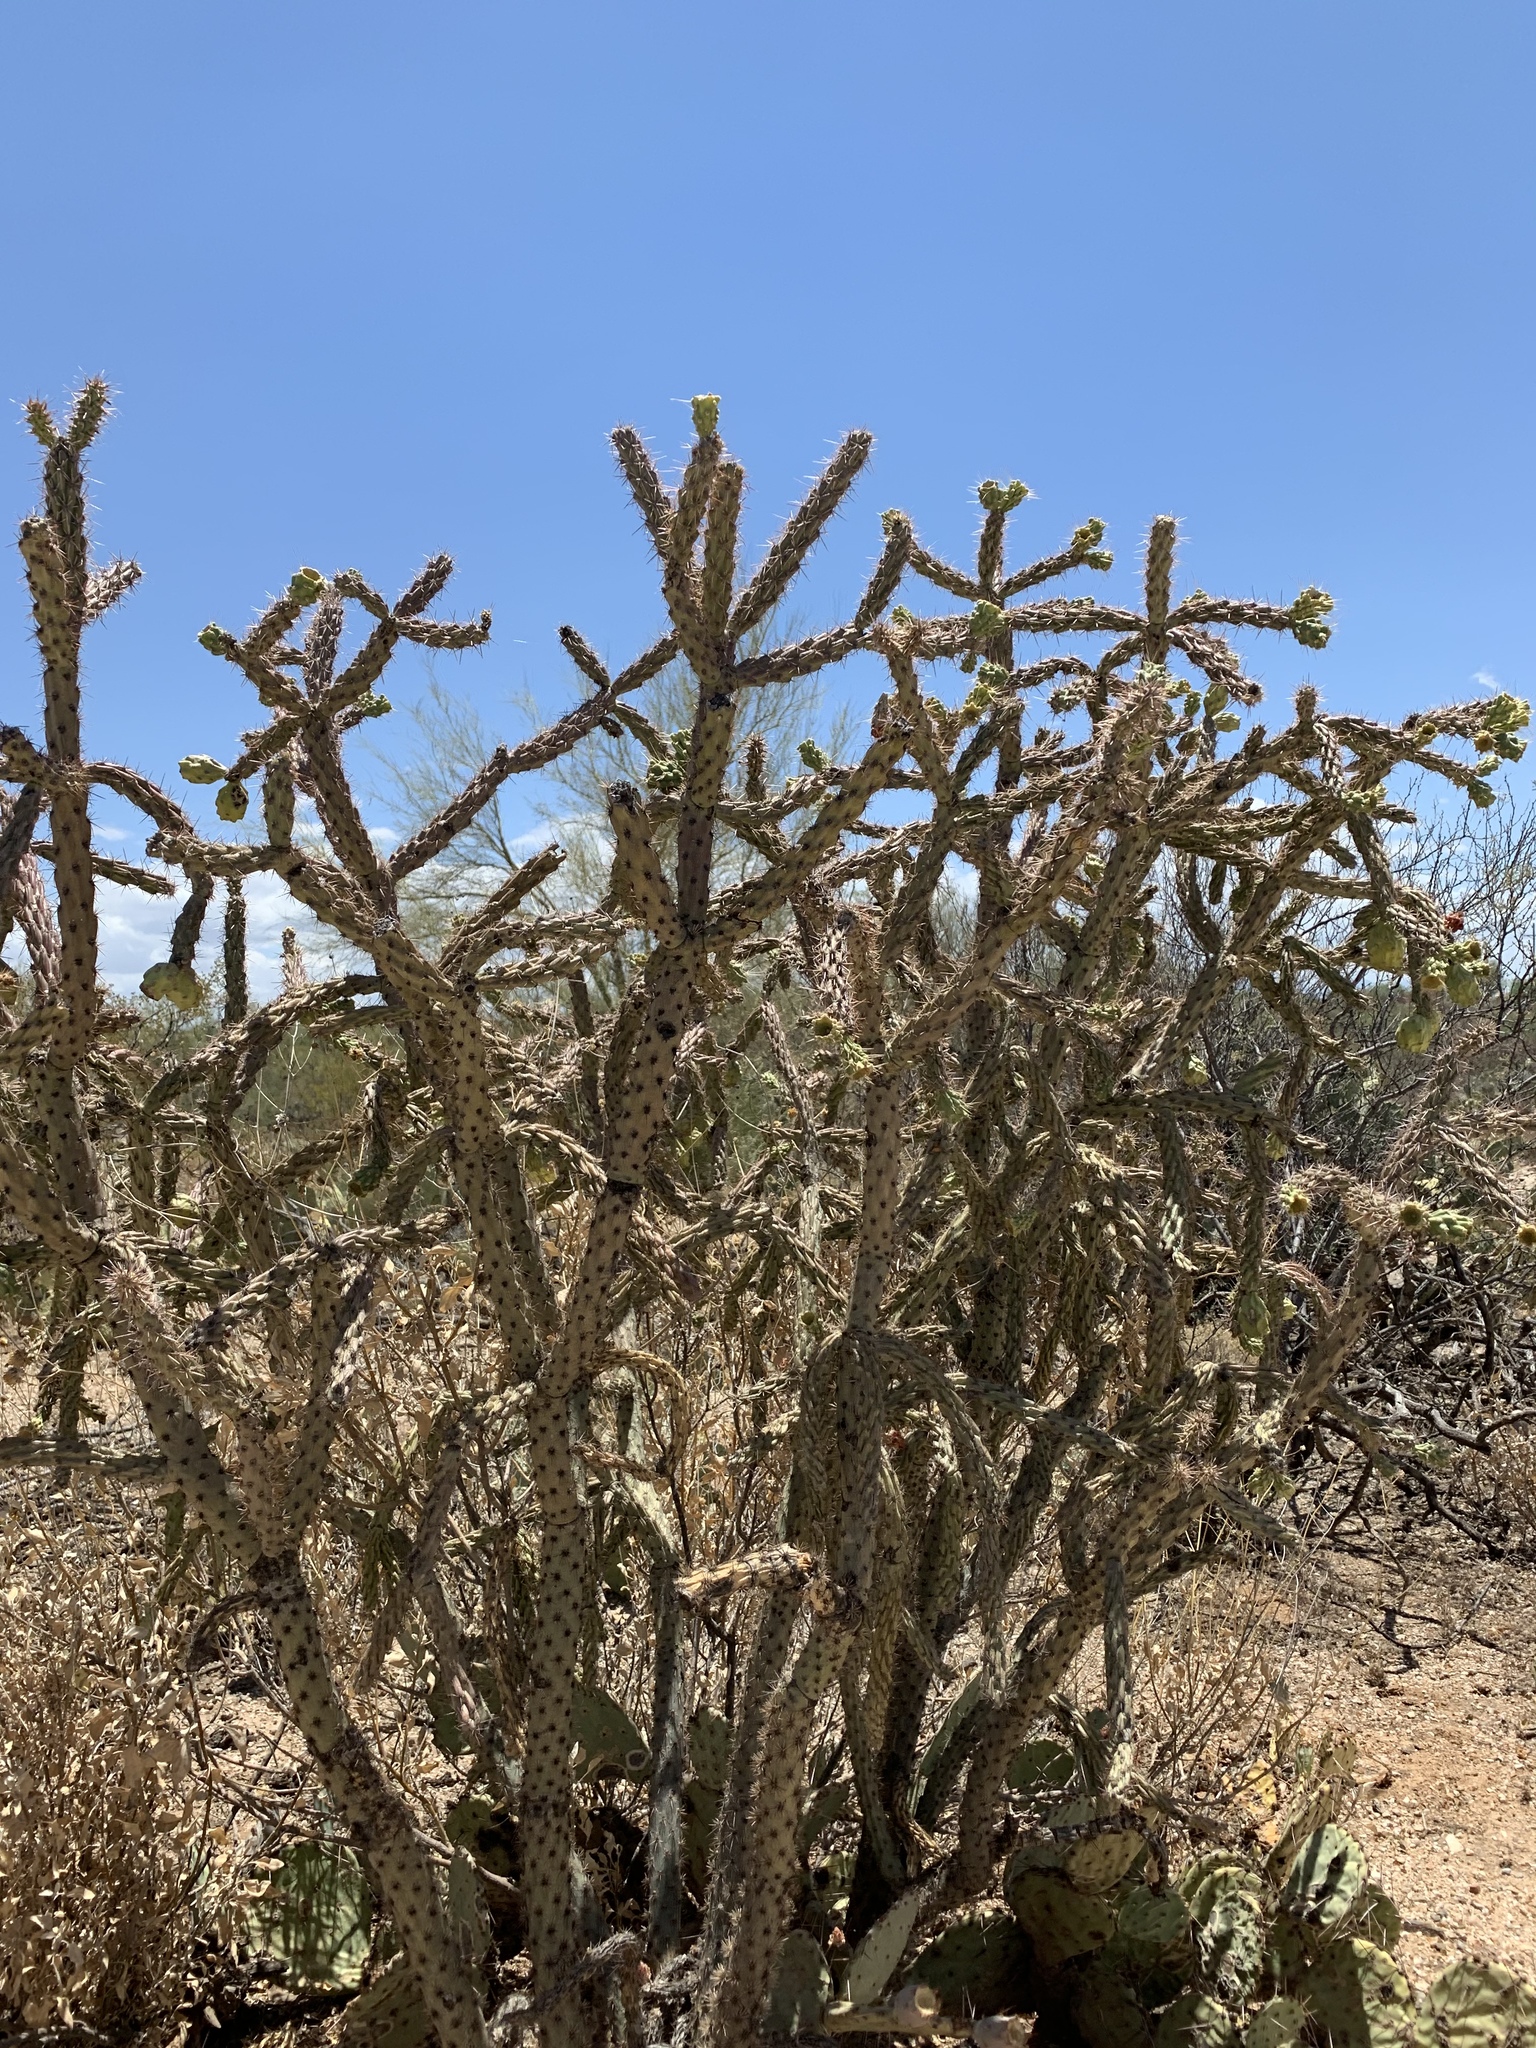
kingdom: Plantae
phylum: Tracheophyta
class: Magnoliopsida
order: Caryophyllales
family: Cactaceae
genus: Cylindropuntia
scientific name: Cylindropuntia imbricata
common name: Candelabrum cactus
